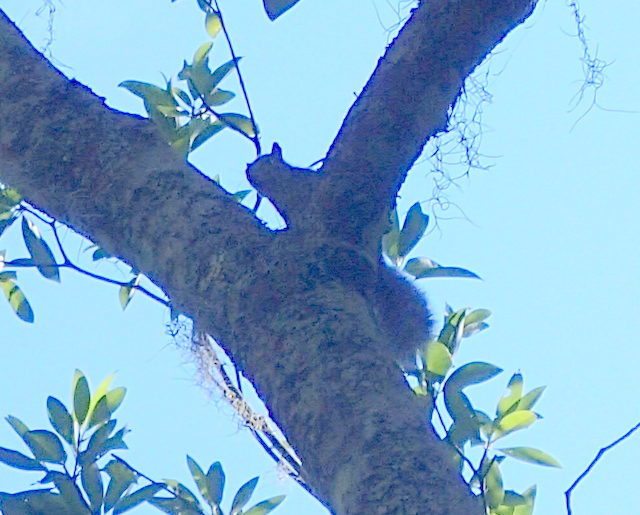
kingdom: Animalia
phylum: Chordata
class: Mammalia
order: Rodentia
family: Sciuridae
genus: Sciurus
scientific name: Sciurus carolinensis
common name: Eastern gray squirrel
